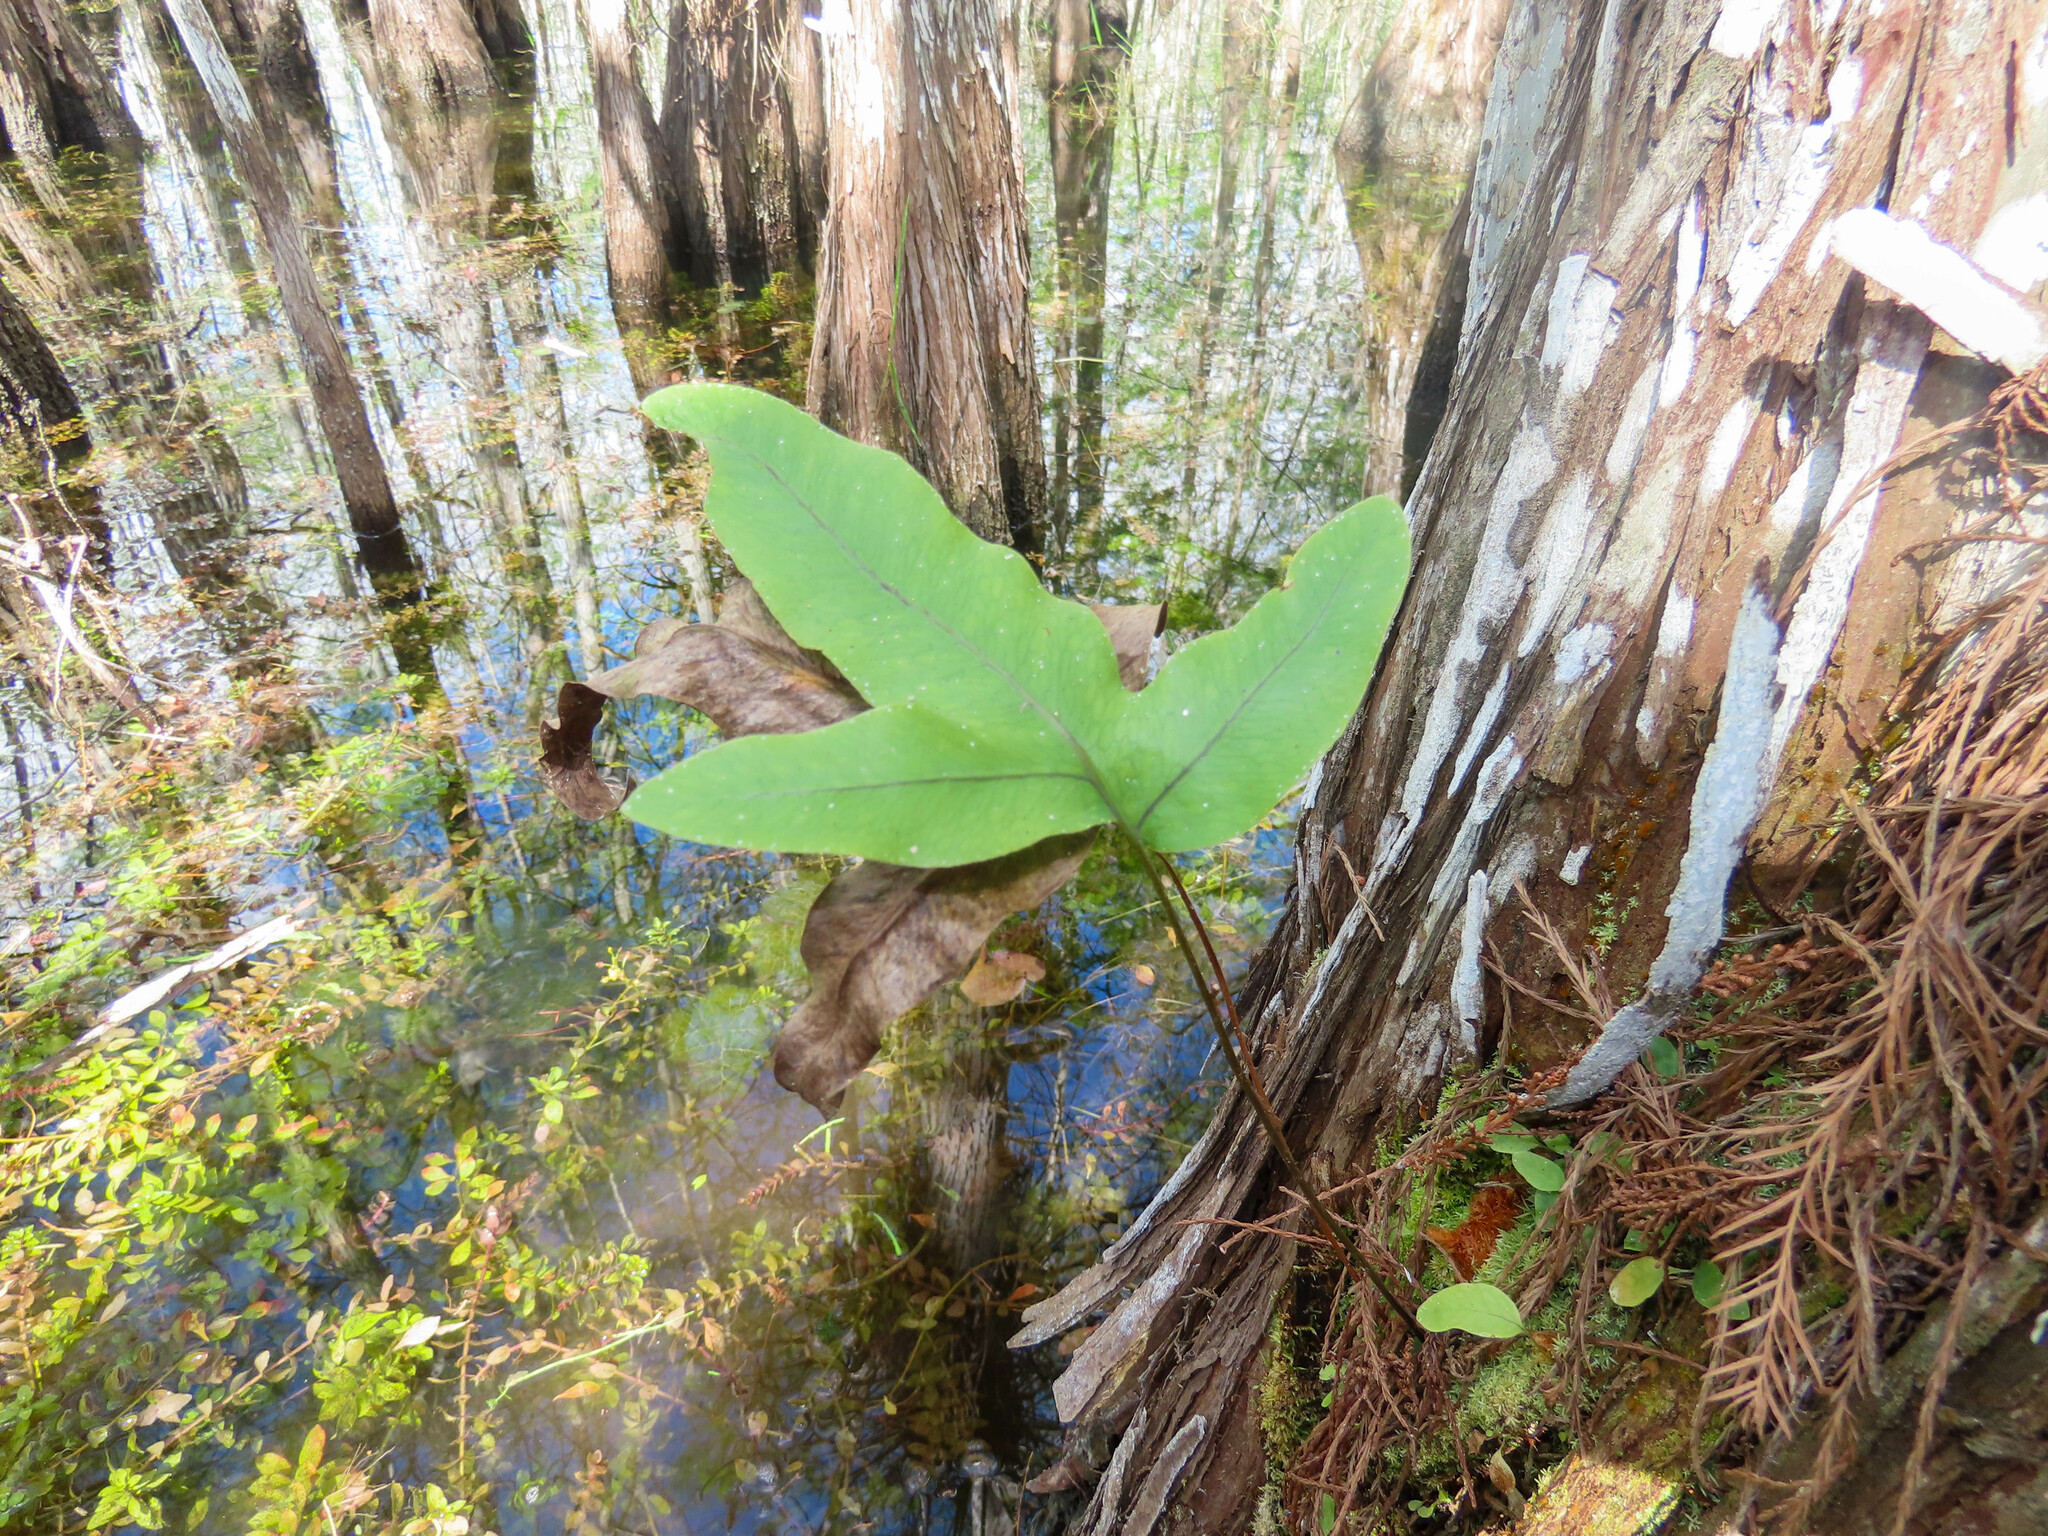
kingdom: Plantae
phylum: Tracheophyta
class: Polypodiopsida
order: Polypodiales
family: Polypodiaceae
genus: Phlebodium
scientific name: Phlebodium aureum
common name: Gold-foot fern
